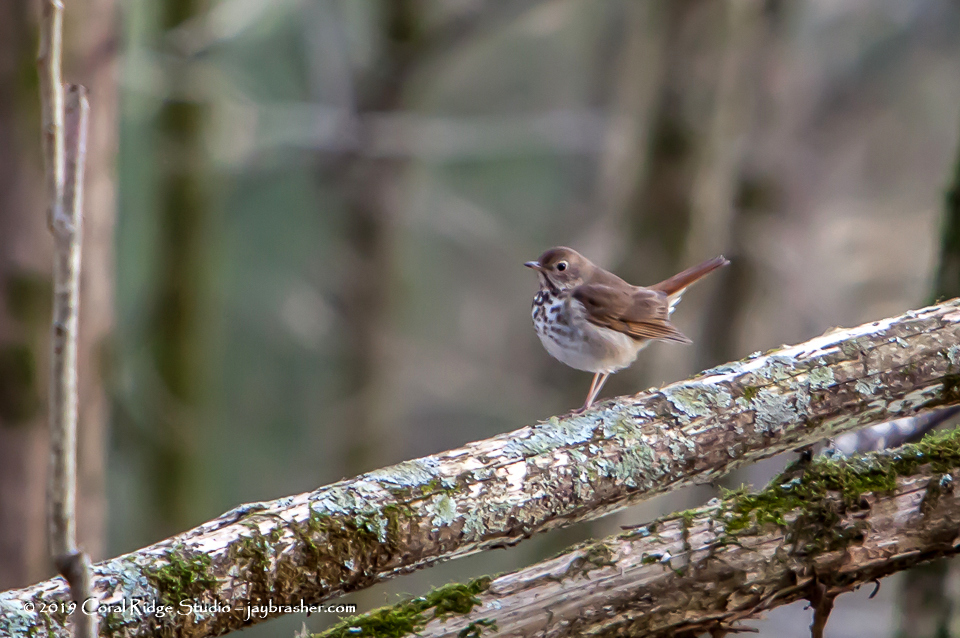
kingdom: Animalia
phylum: Chordata
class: Aves
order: Passeriformes
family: Turdidae
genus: Catharus
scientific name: Catharus guttatus
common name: Hermit thrush
